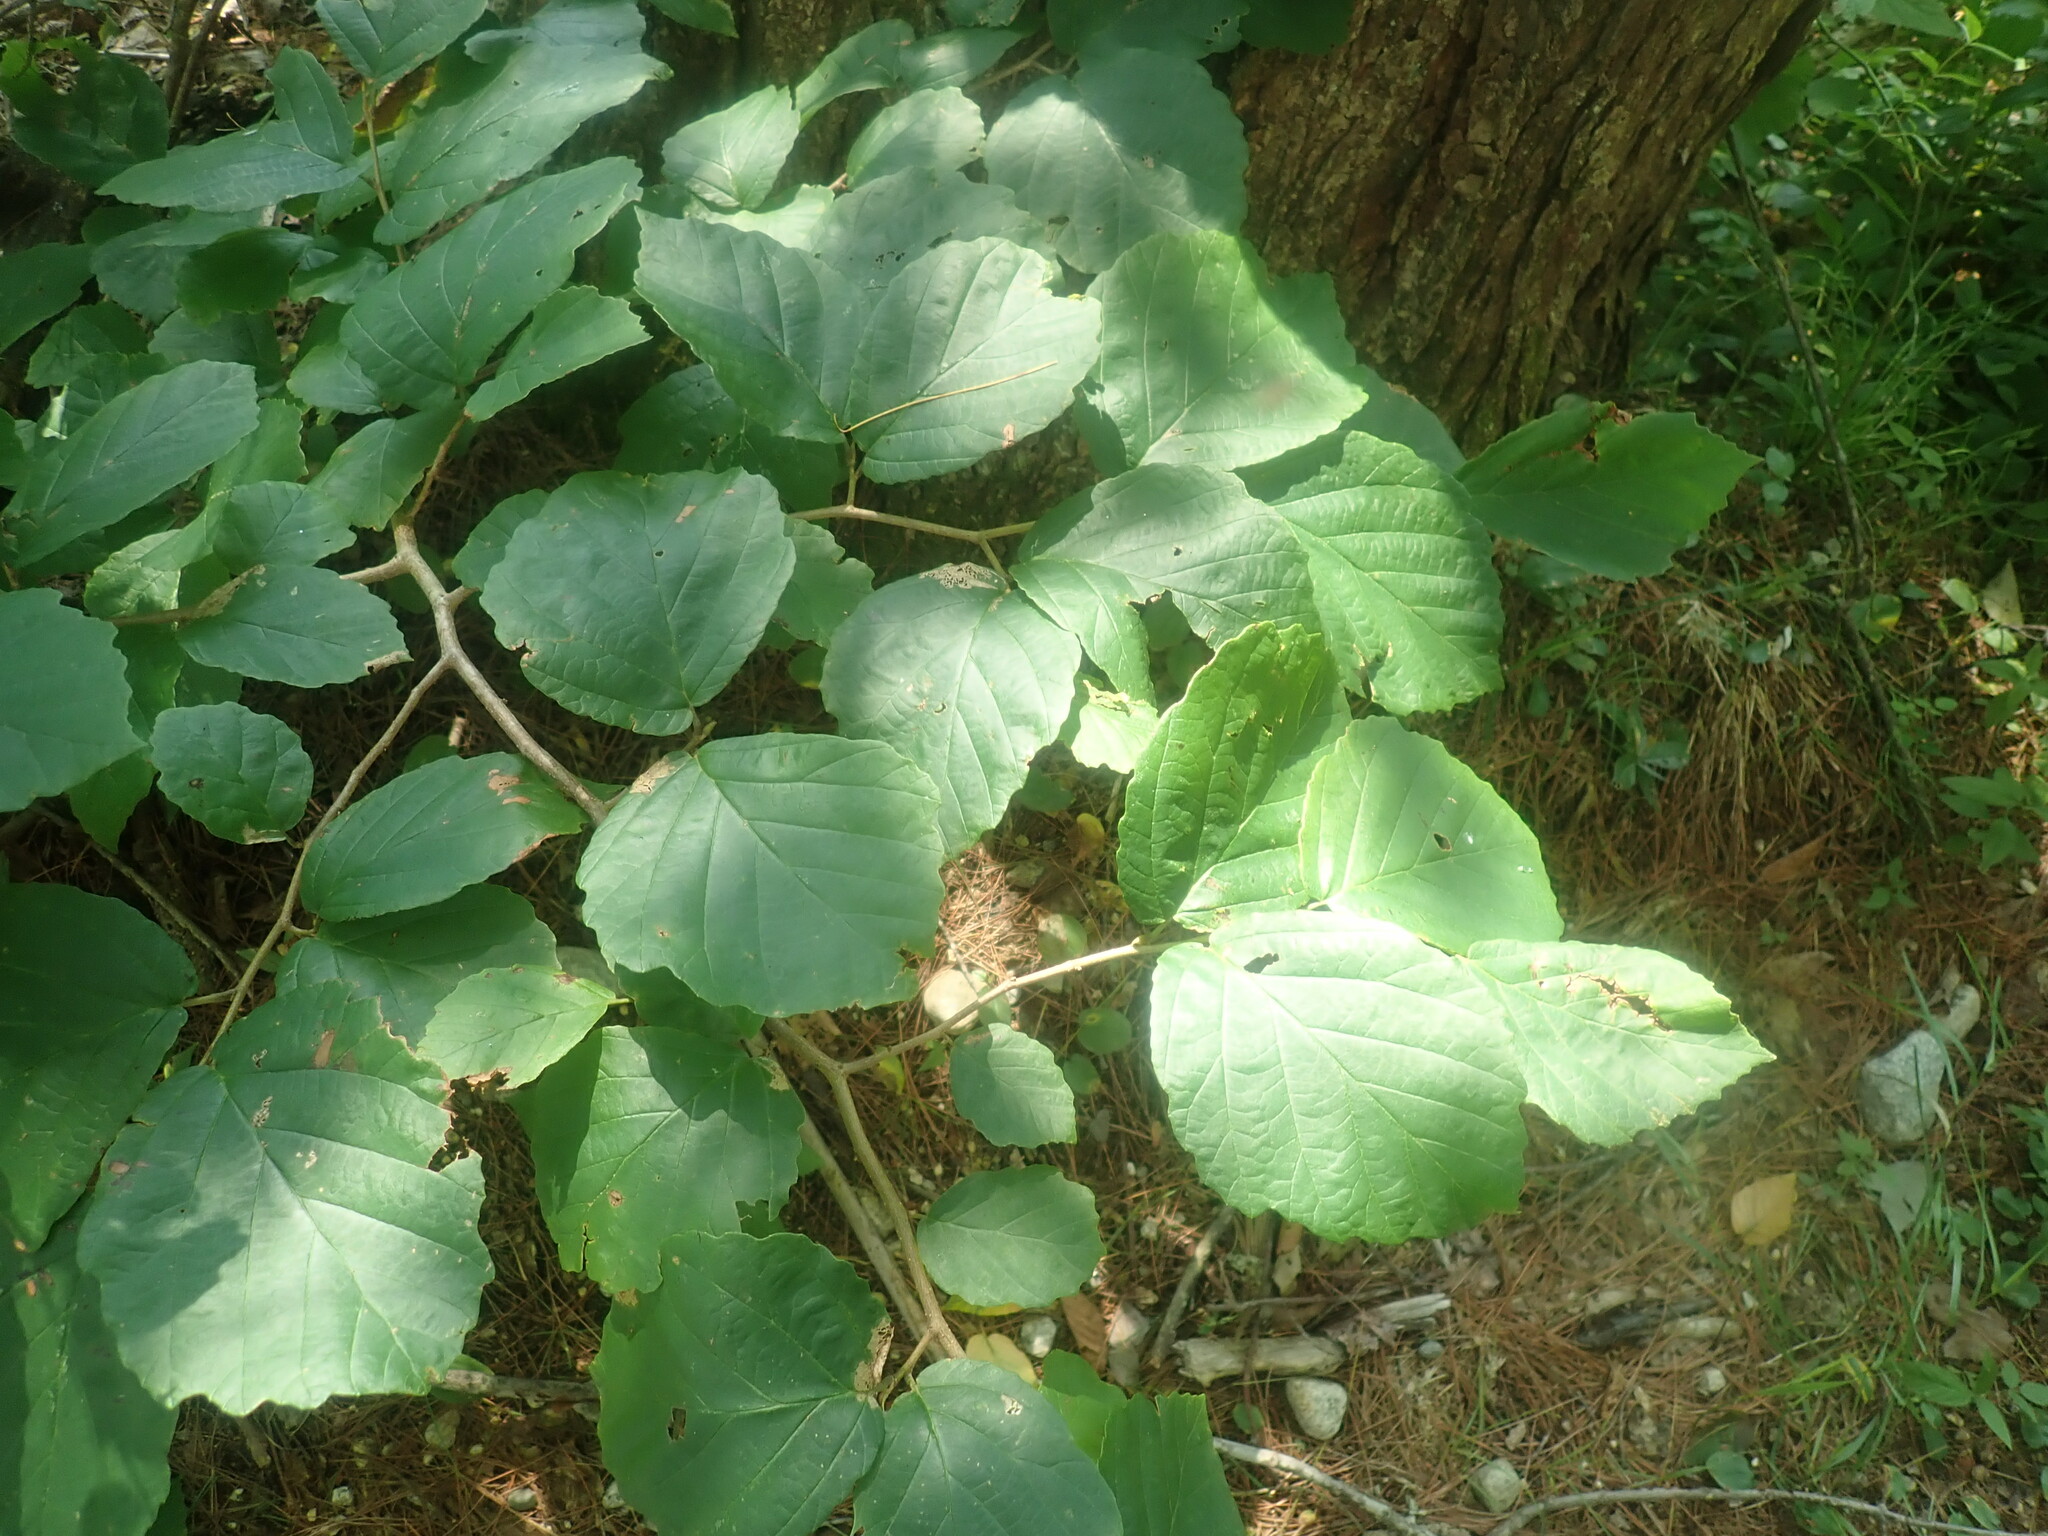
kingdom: Plantae
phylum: Tracheophyta
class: Magnoliopsida
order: Saxifragales
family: Hamamelidaceae
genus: Hamamelis
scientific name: Hamamelis virginiana
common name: Witch-hazel
